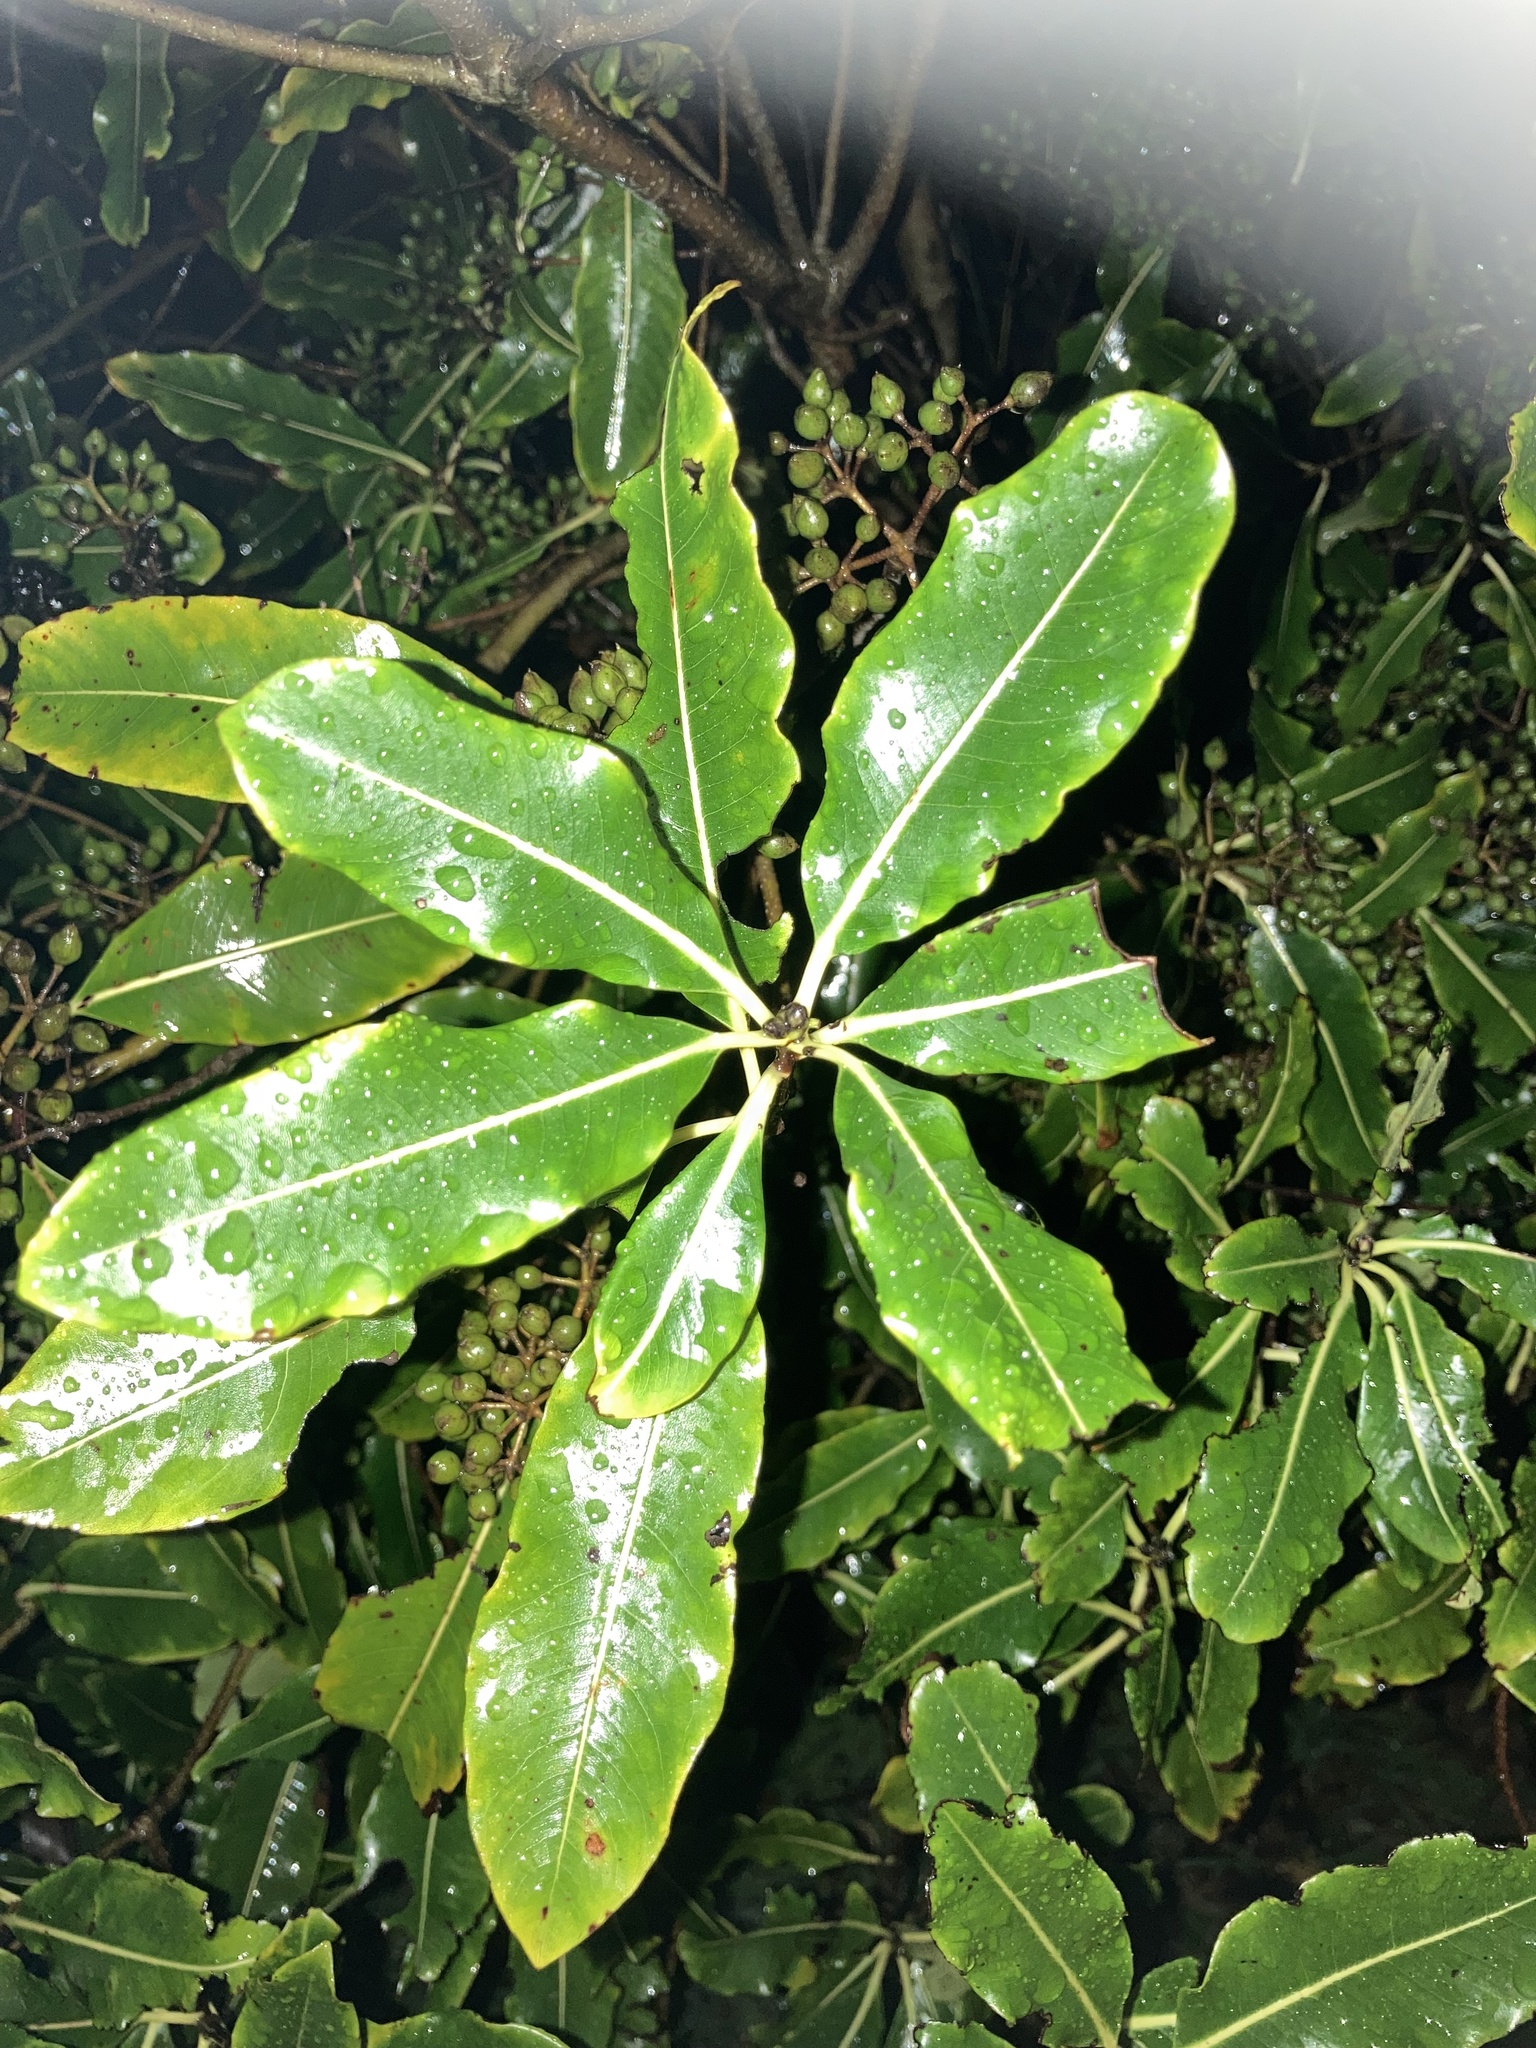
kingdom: Plantae
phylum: Tracheophyta
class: Magnoliopsida
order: Apiales
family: Pittosporaceae
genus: Pittosporum
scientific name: Pittosporum eugenioides
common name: Lemonwood
